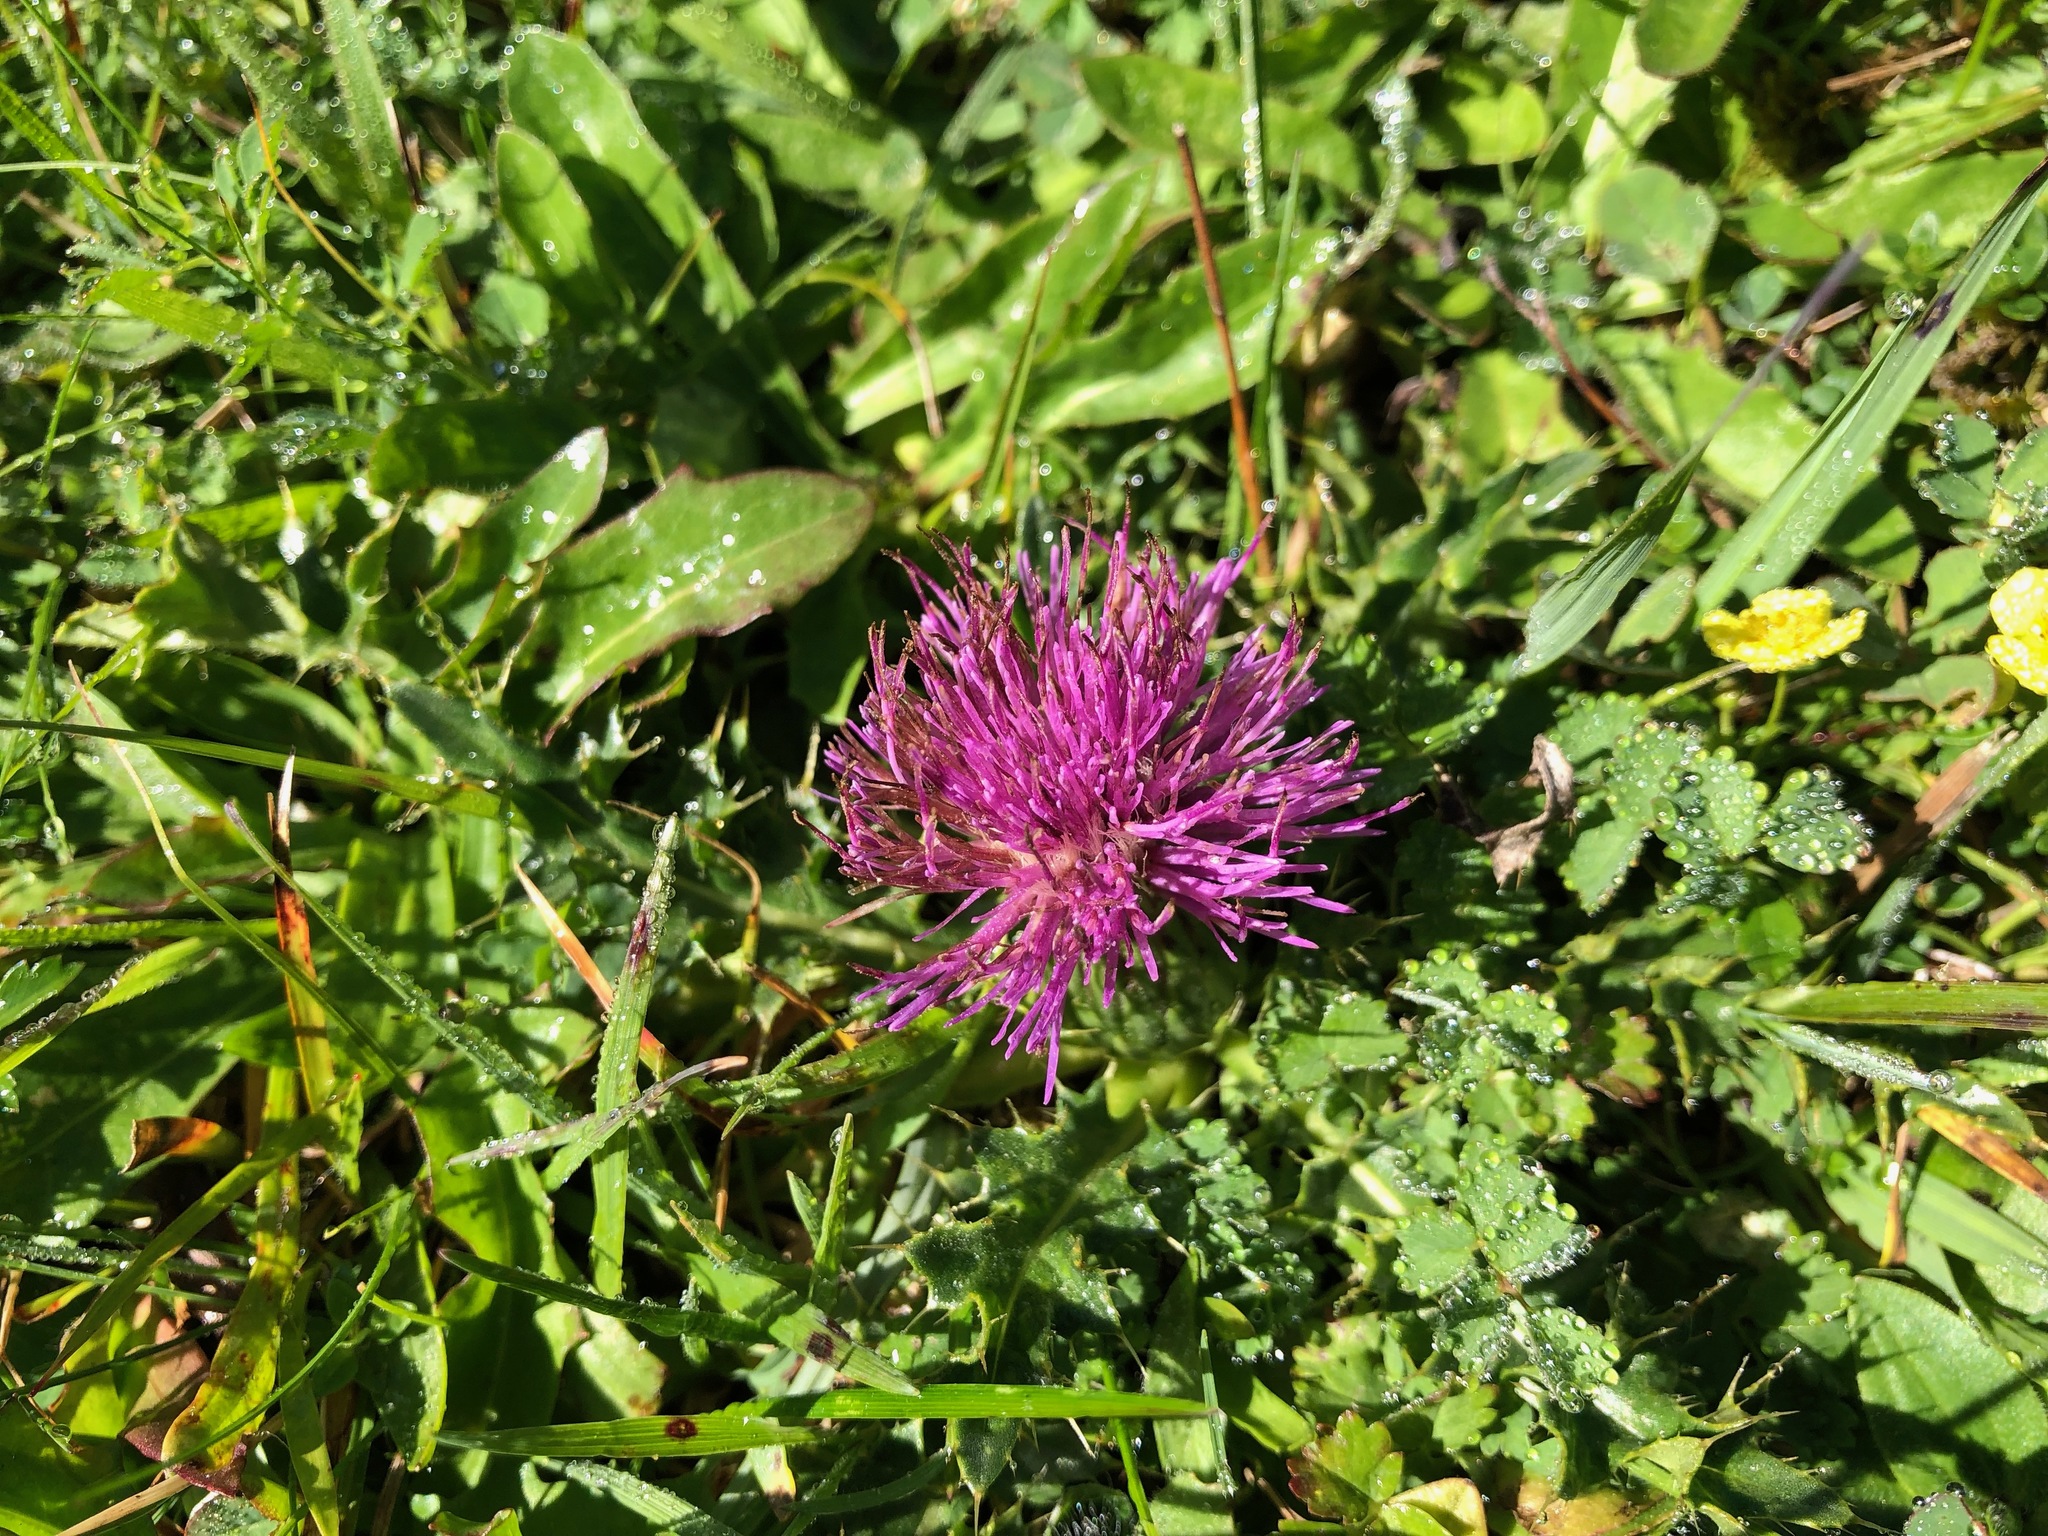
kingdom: Plantae
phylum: Tracheophyta
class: Magnoliopsida
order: Asterales
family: Asteraceae
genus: Cirsium
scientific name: Cirsium acaulon
